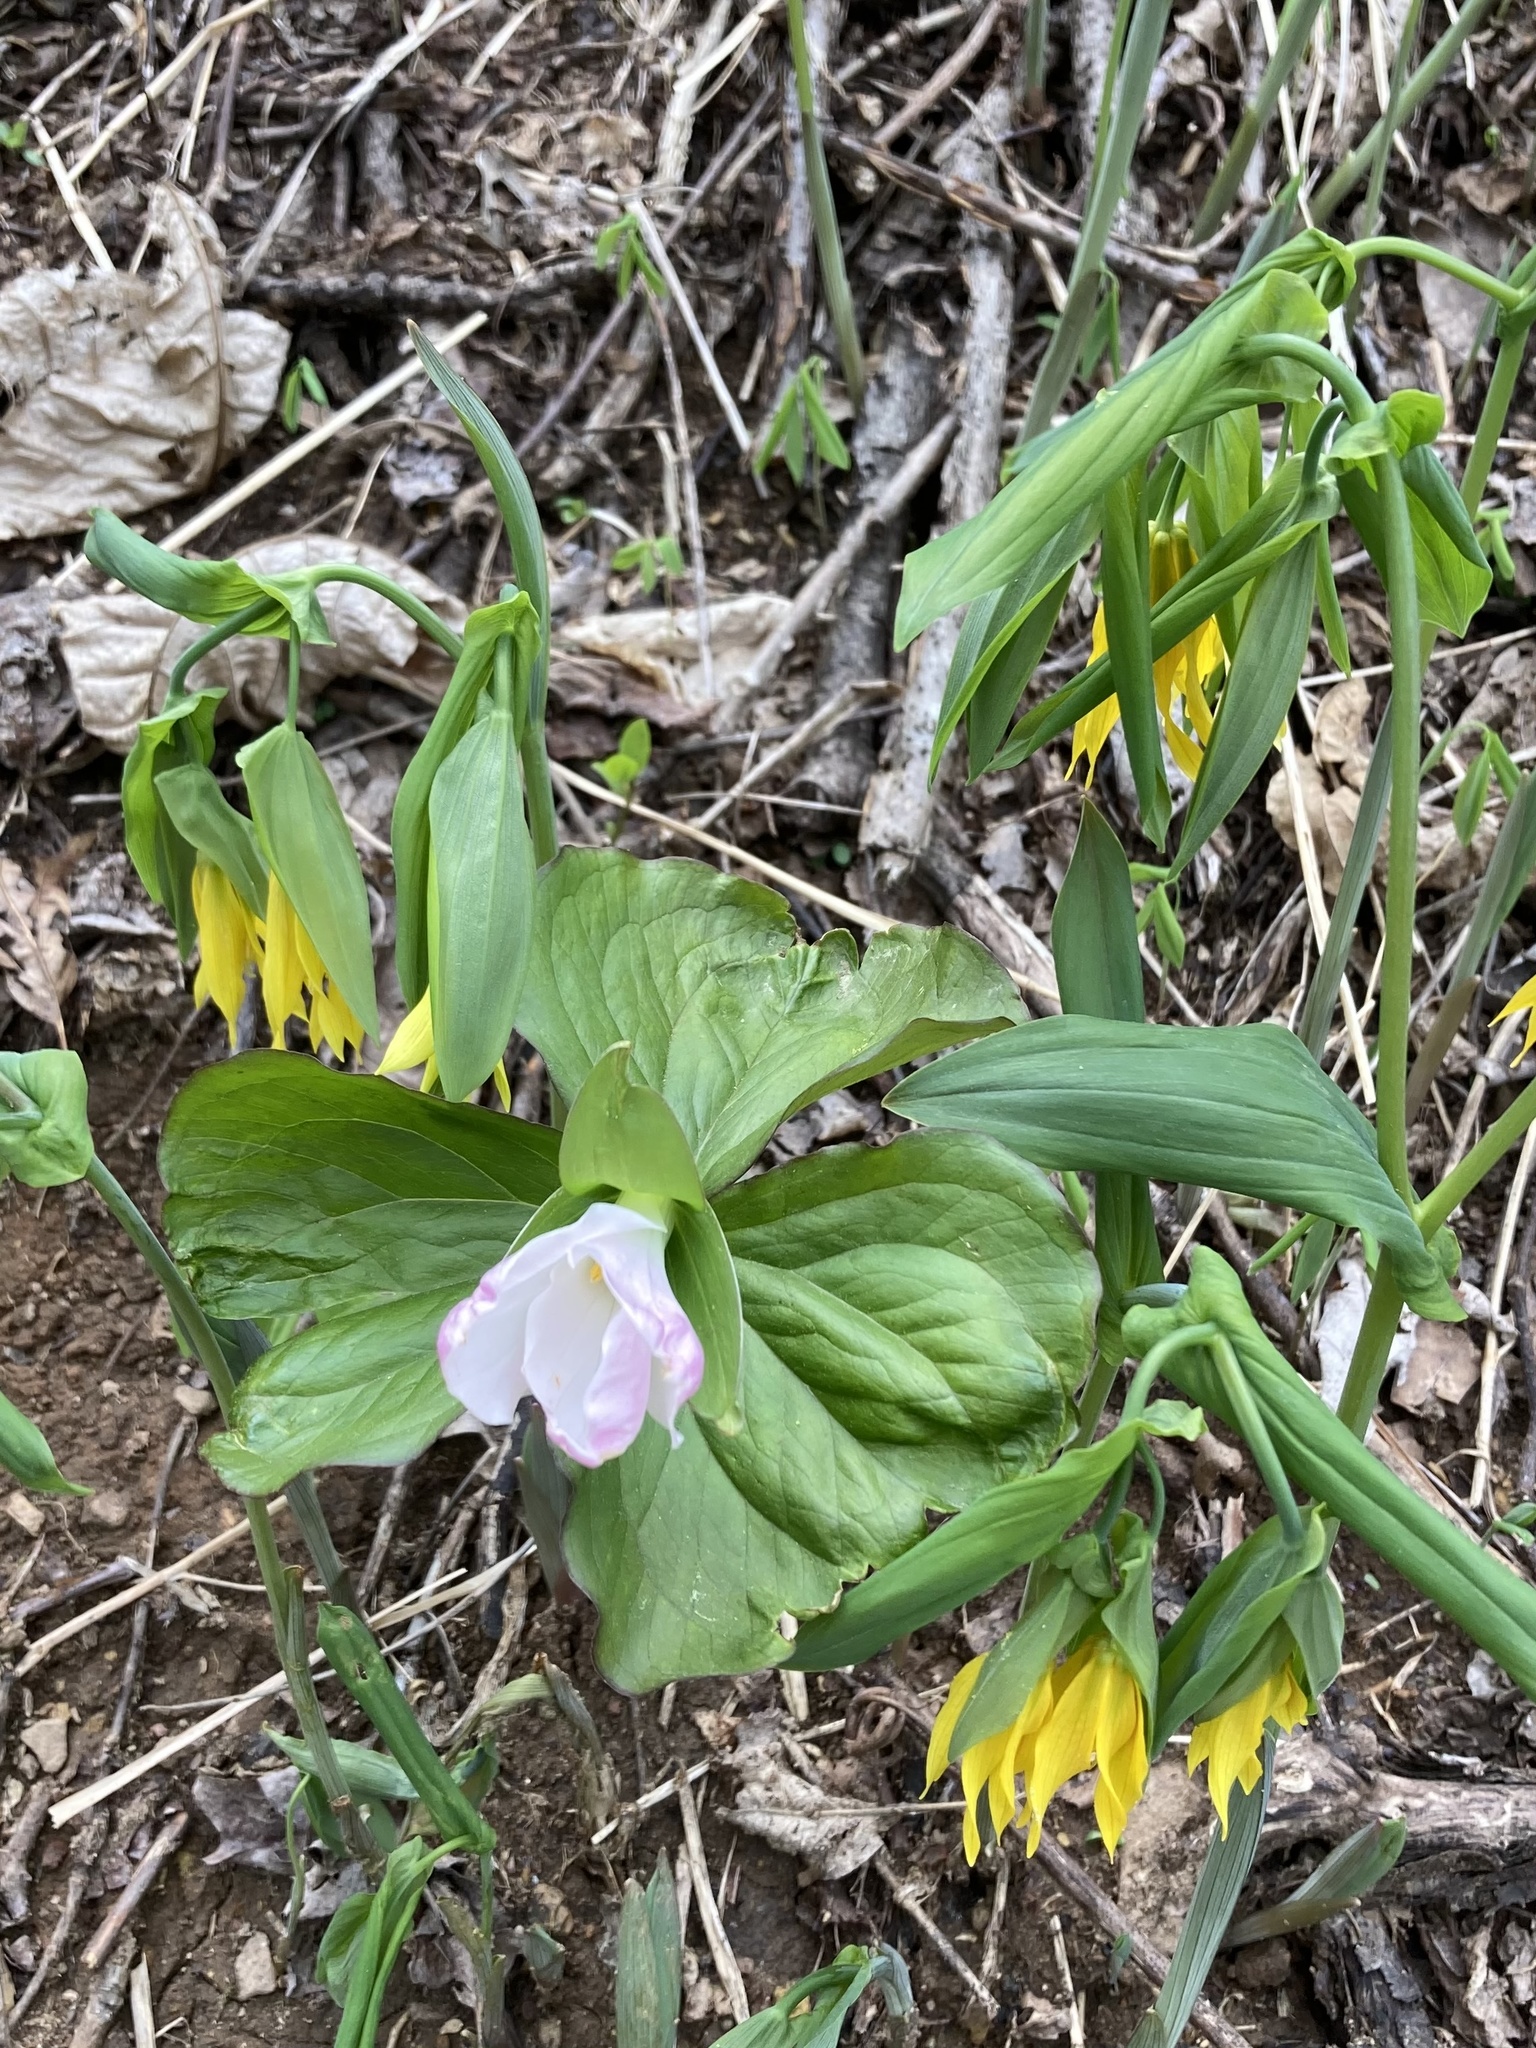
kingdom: Plantae
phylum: Tracheophyta
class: Liliopsida
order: Liliales
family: Melanthiaceae
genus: Trillium
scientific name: Trillium grandiflorum
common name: Great white trillium
